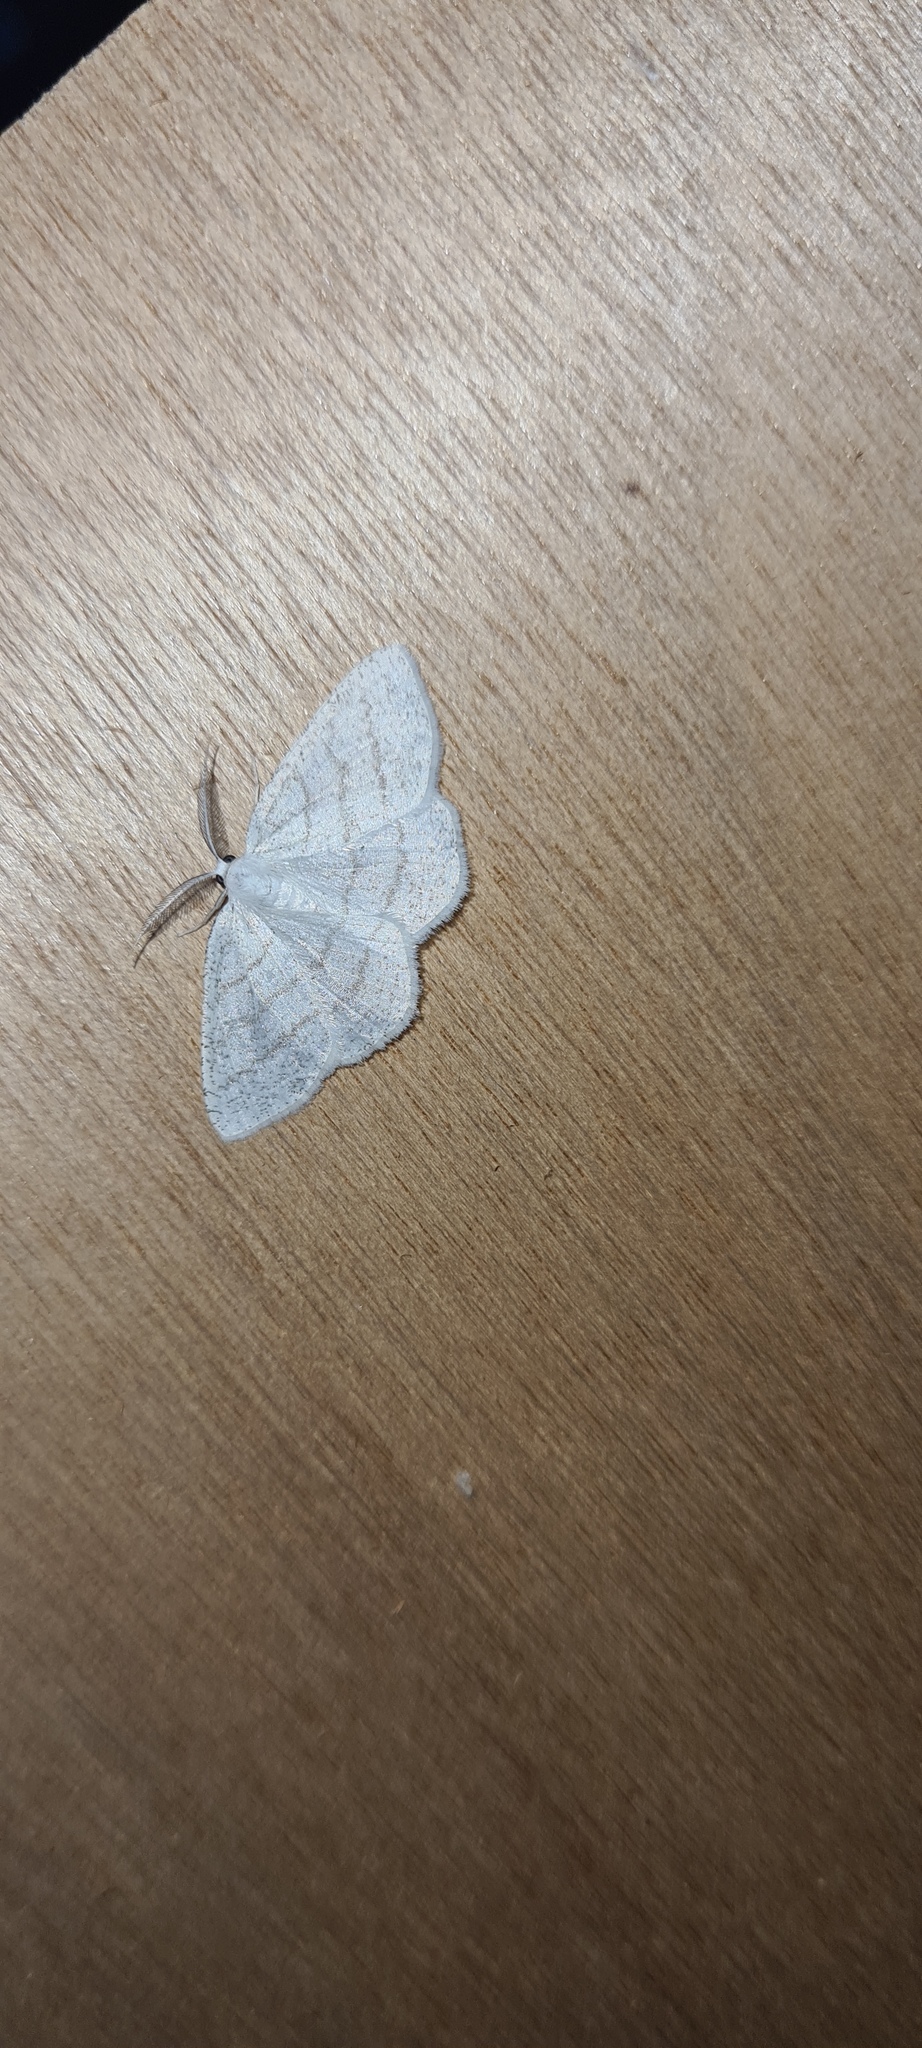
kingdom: Animalia
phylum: Arthropoda
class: Insecta
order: Lepidoptera
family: Geometridae
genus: Cabera
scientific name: Cabera pusaria
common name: Common white wave
